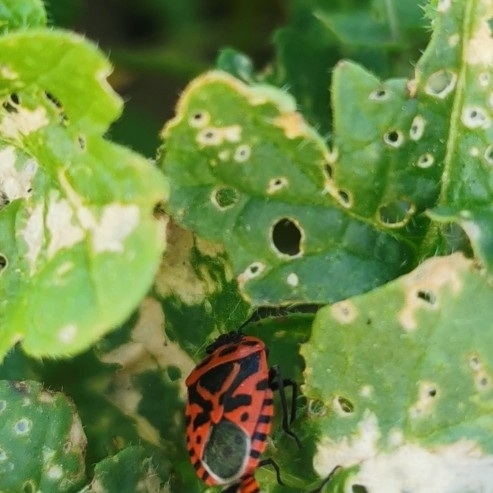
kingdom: Animalia
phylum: Arthropoda
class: Insecta
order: Hemiptera
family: Pentatomidae
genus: Eurydema
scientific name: Eurydema ventralis
